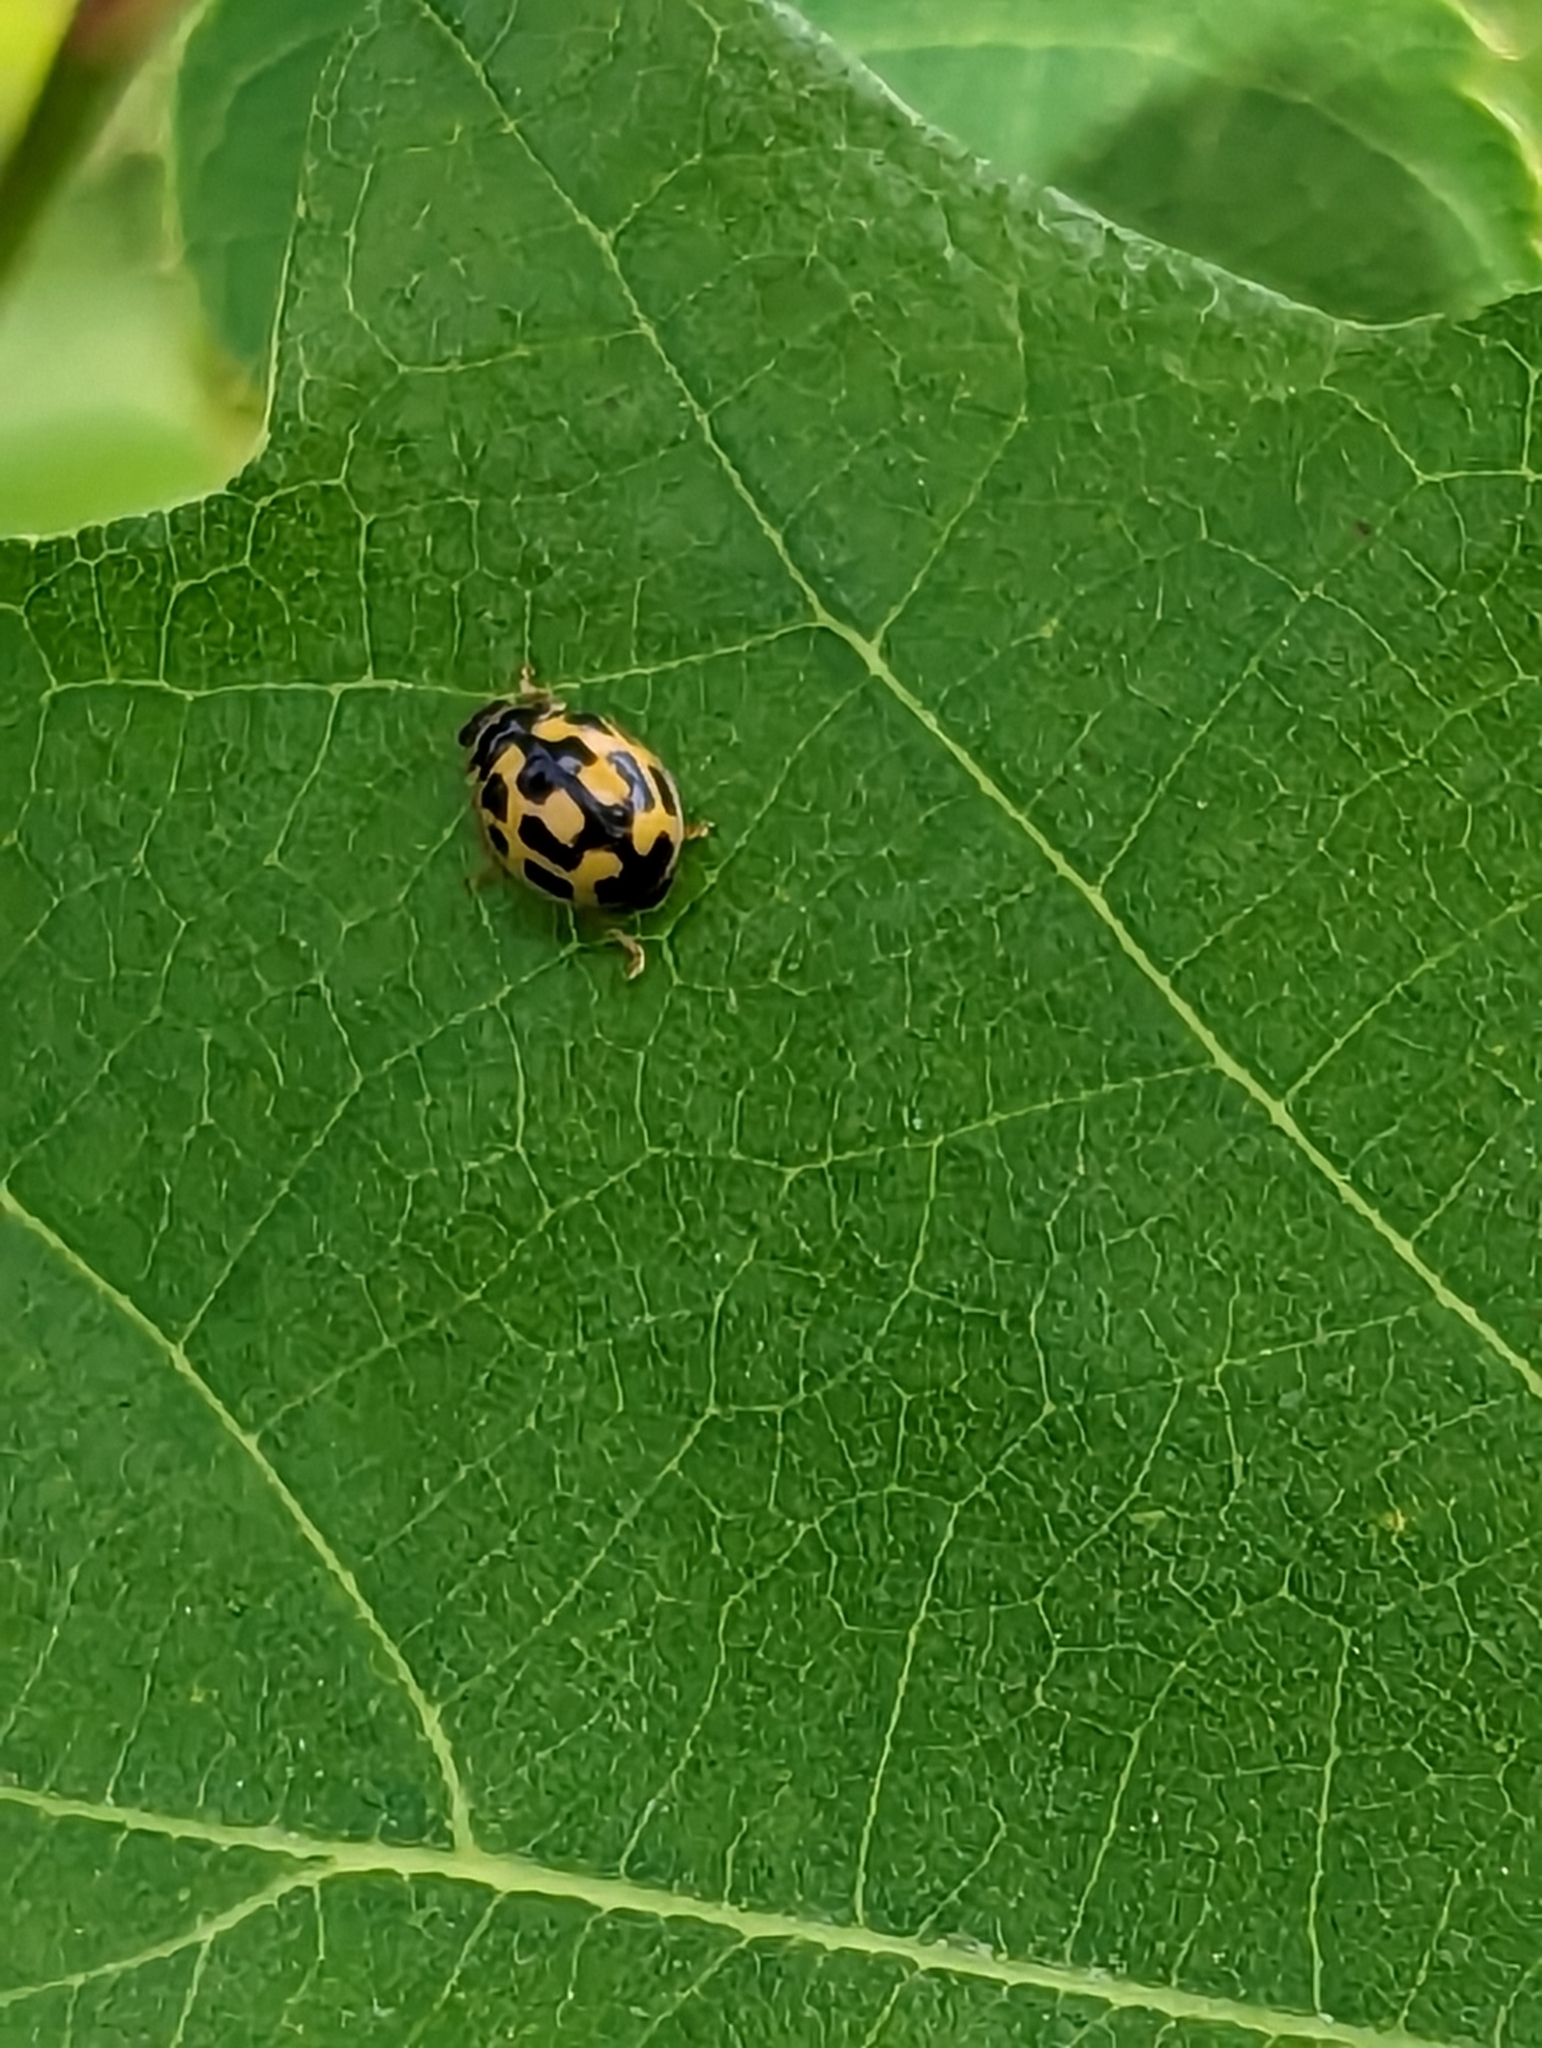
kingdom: Animalia
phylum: Arthropoda
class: Insecta
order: Coleoptera
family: Coccinellidae
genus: Propylaea
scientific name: Propylaea quatuordecimpunctata
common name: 14-spotted ladybird beetle
